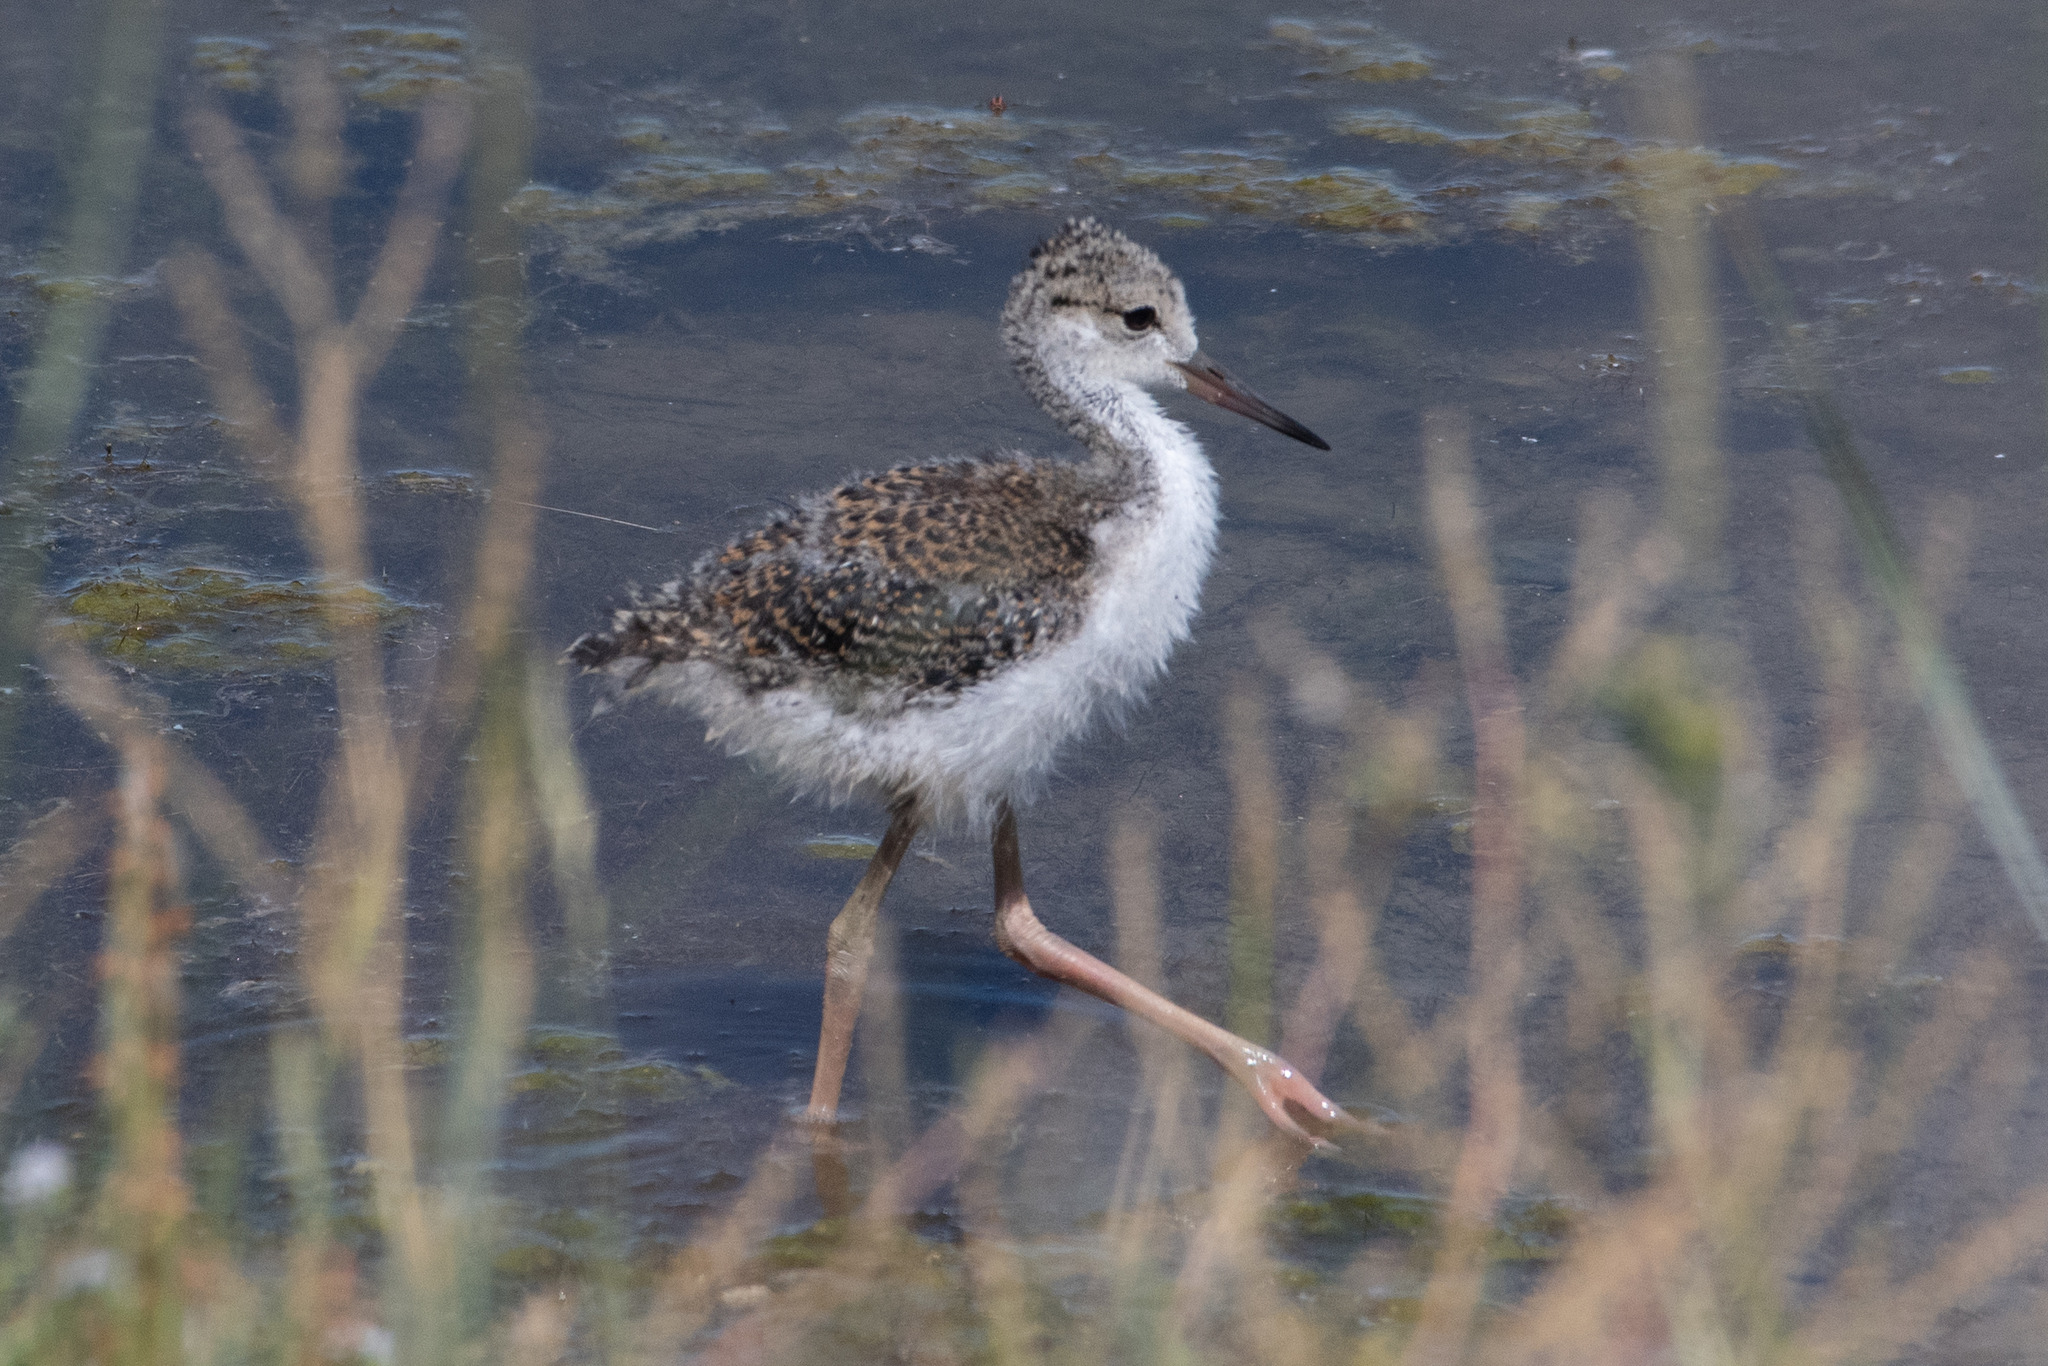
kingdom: Animalia
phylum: Chordata
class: Aves
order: Charadriiformes
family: Recurvirostridae
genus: Himantopus
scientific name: Himantopus mexicanus
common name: Black-necked stilt
